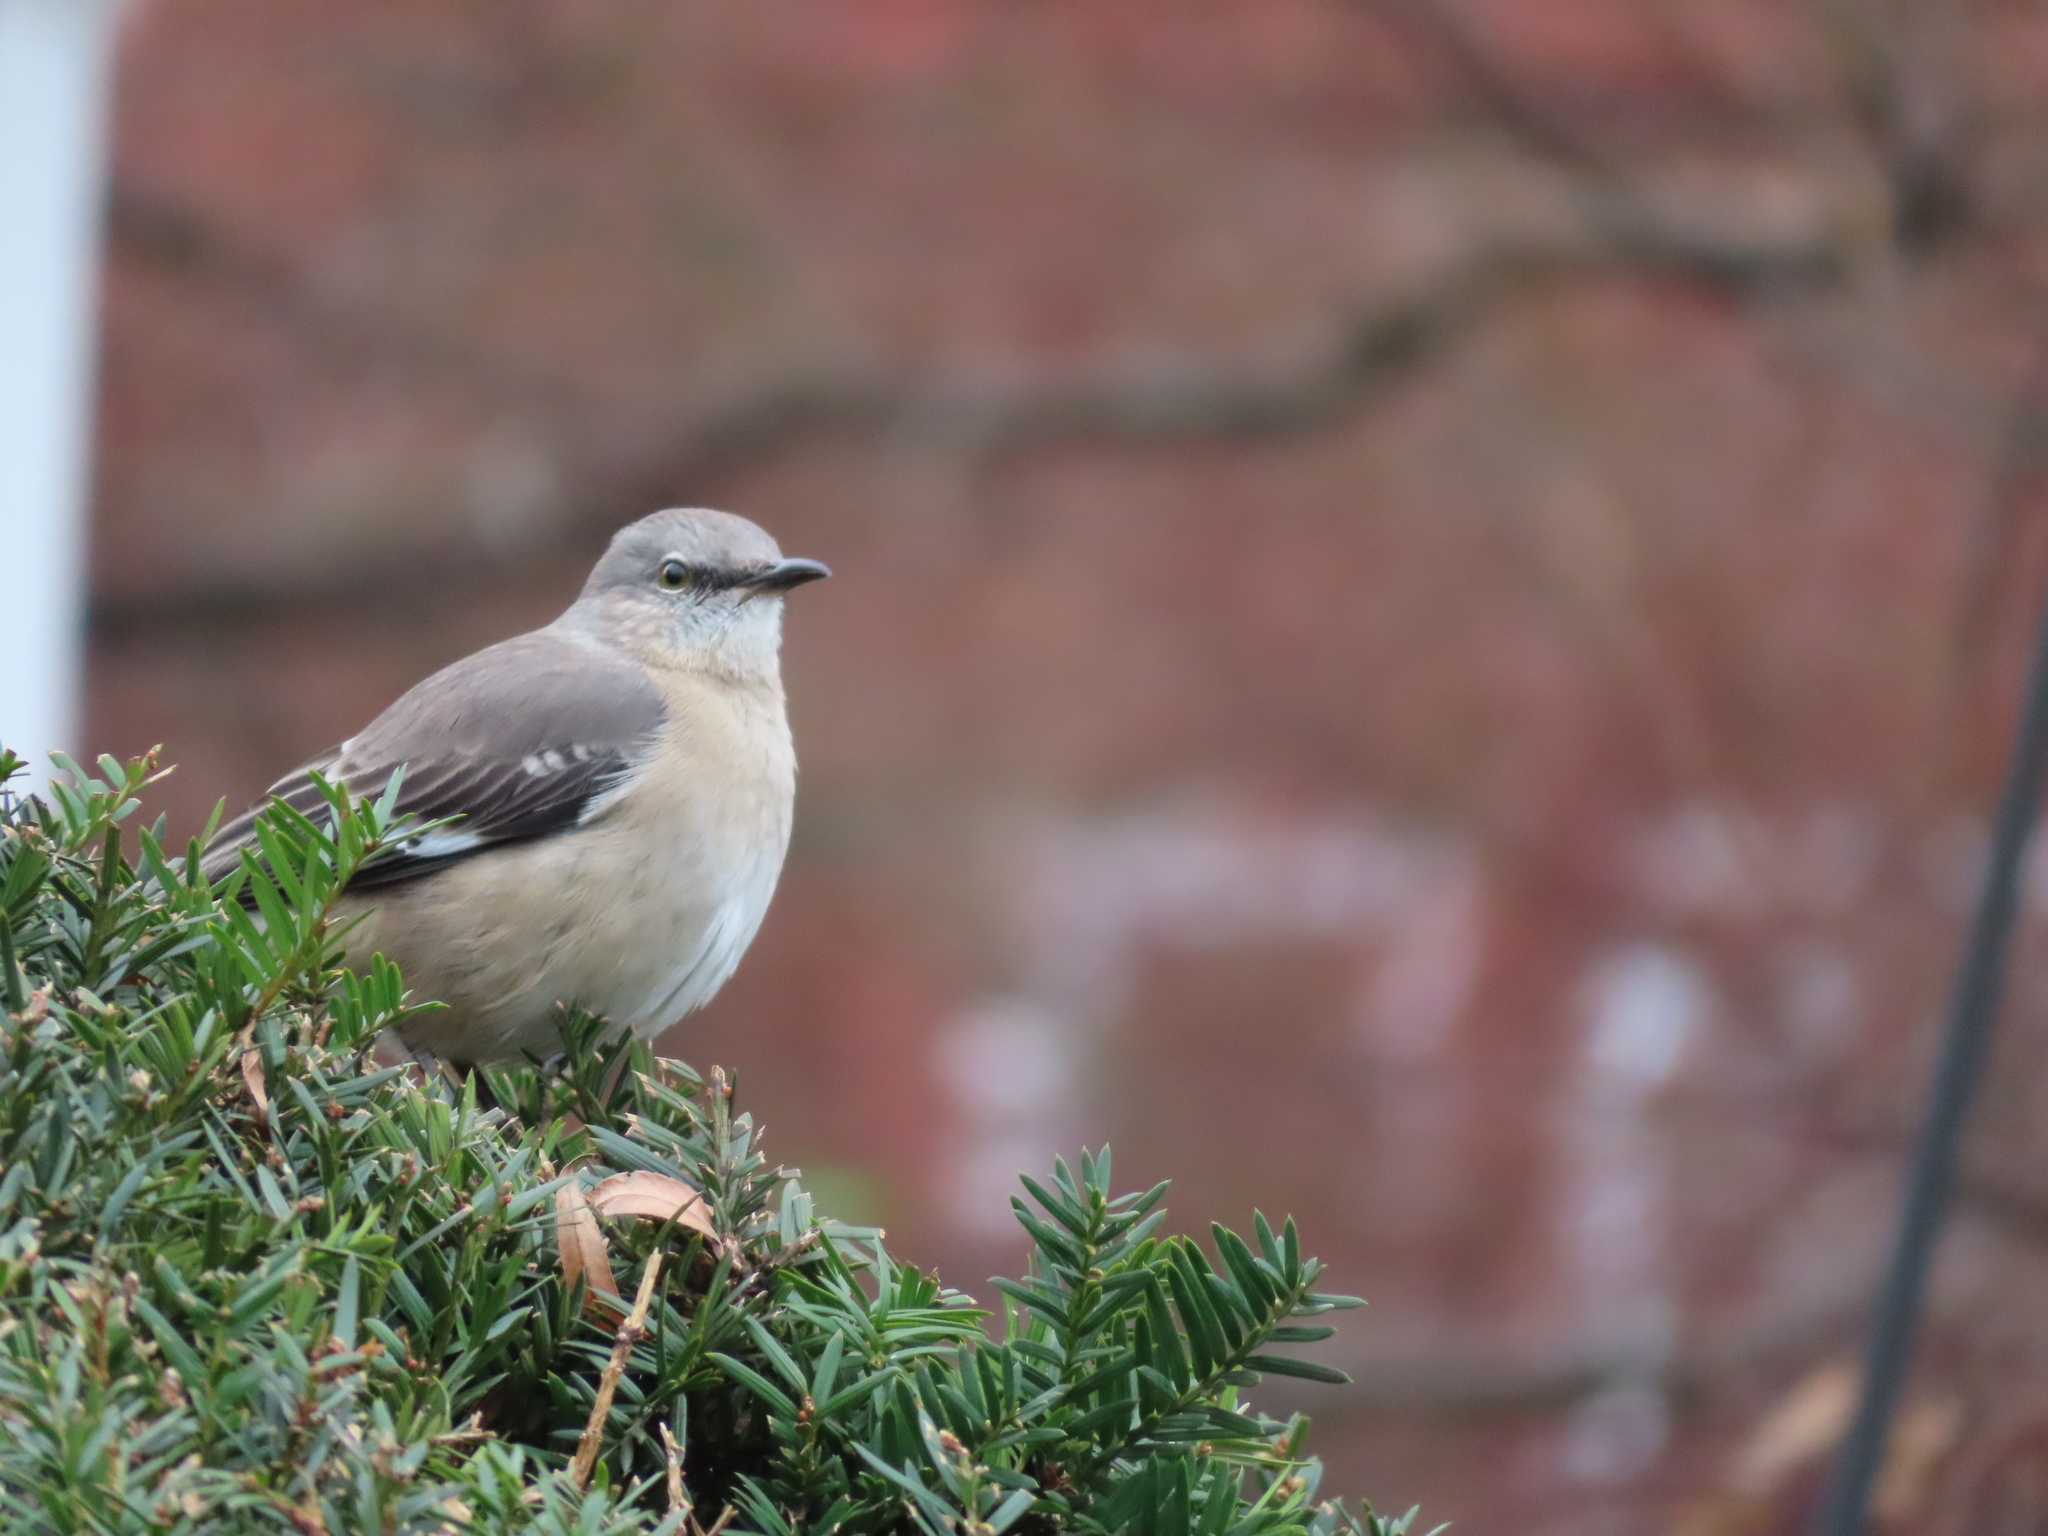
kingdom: Animalia
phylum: Chordata
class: Aves
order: Passeriformes
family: Mimidae
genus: Mimus
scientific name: Mimus polyglottos
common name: Northern mockingbird
